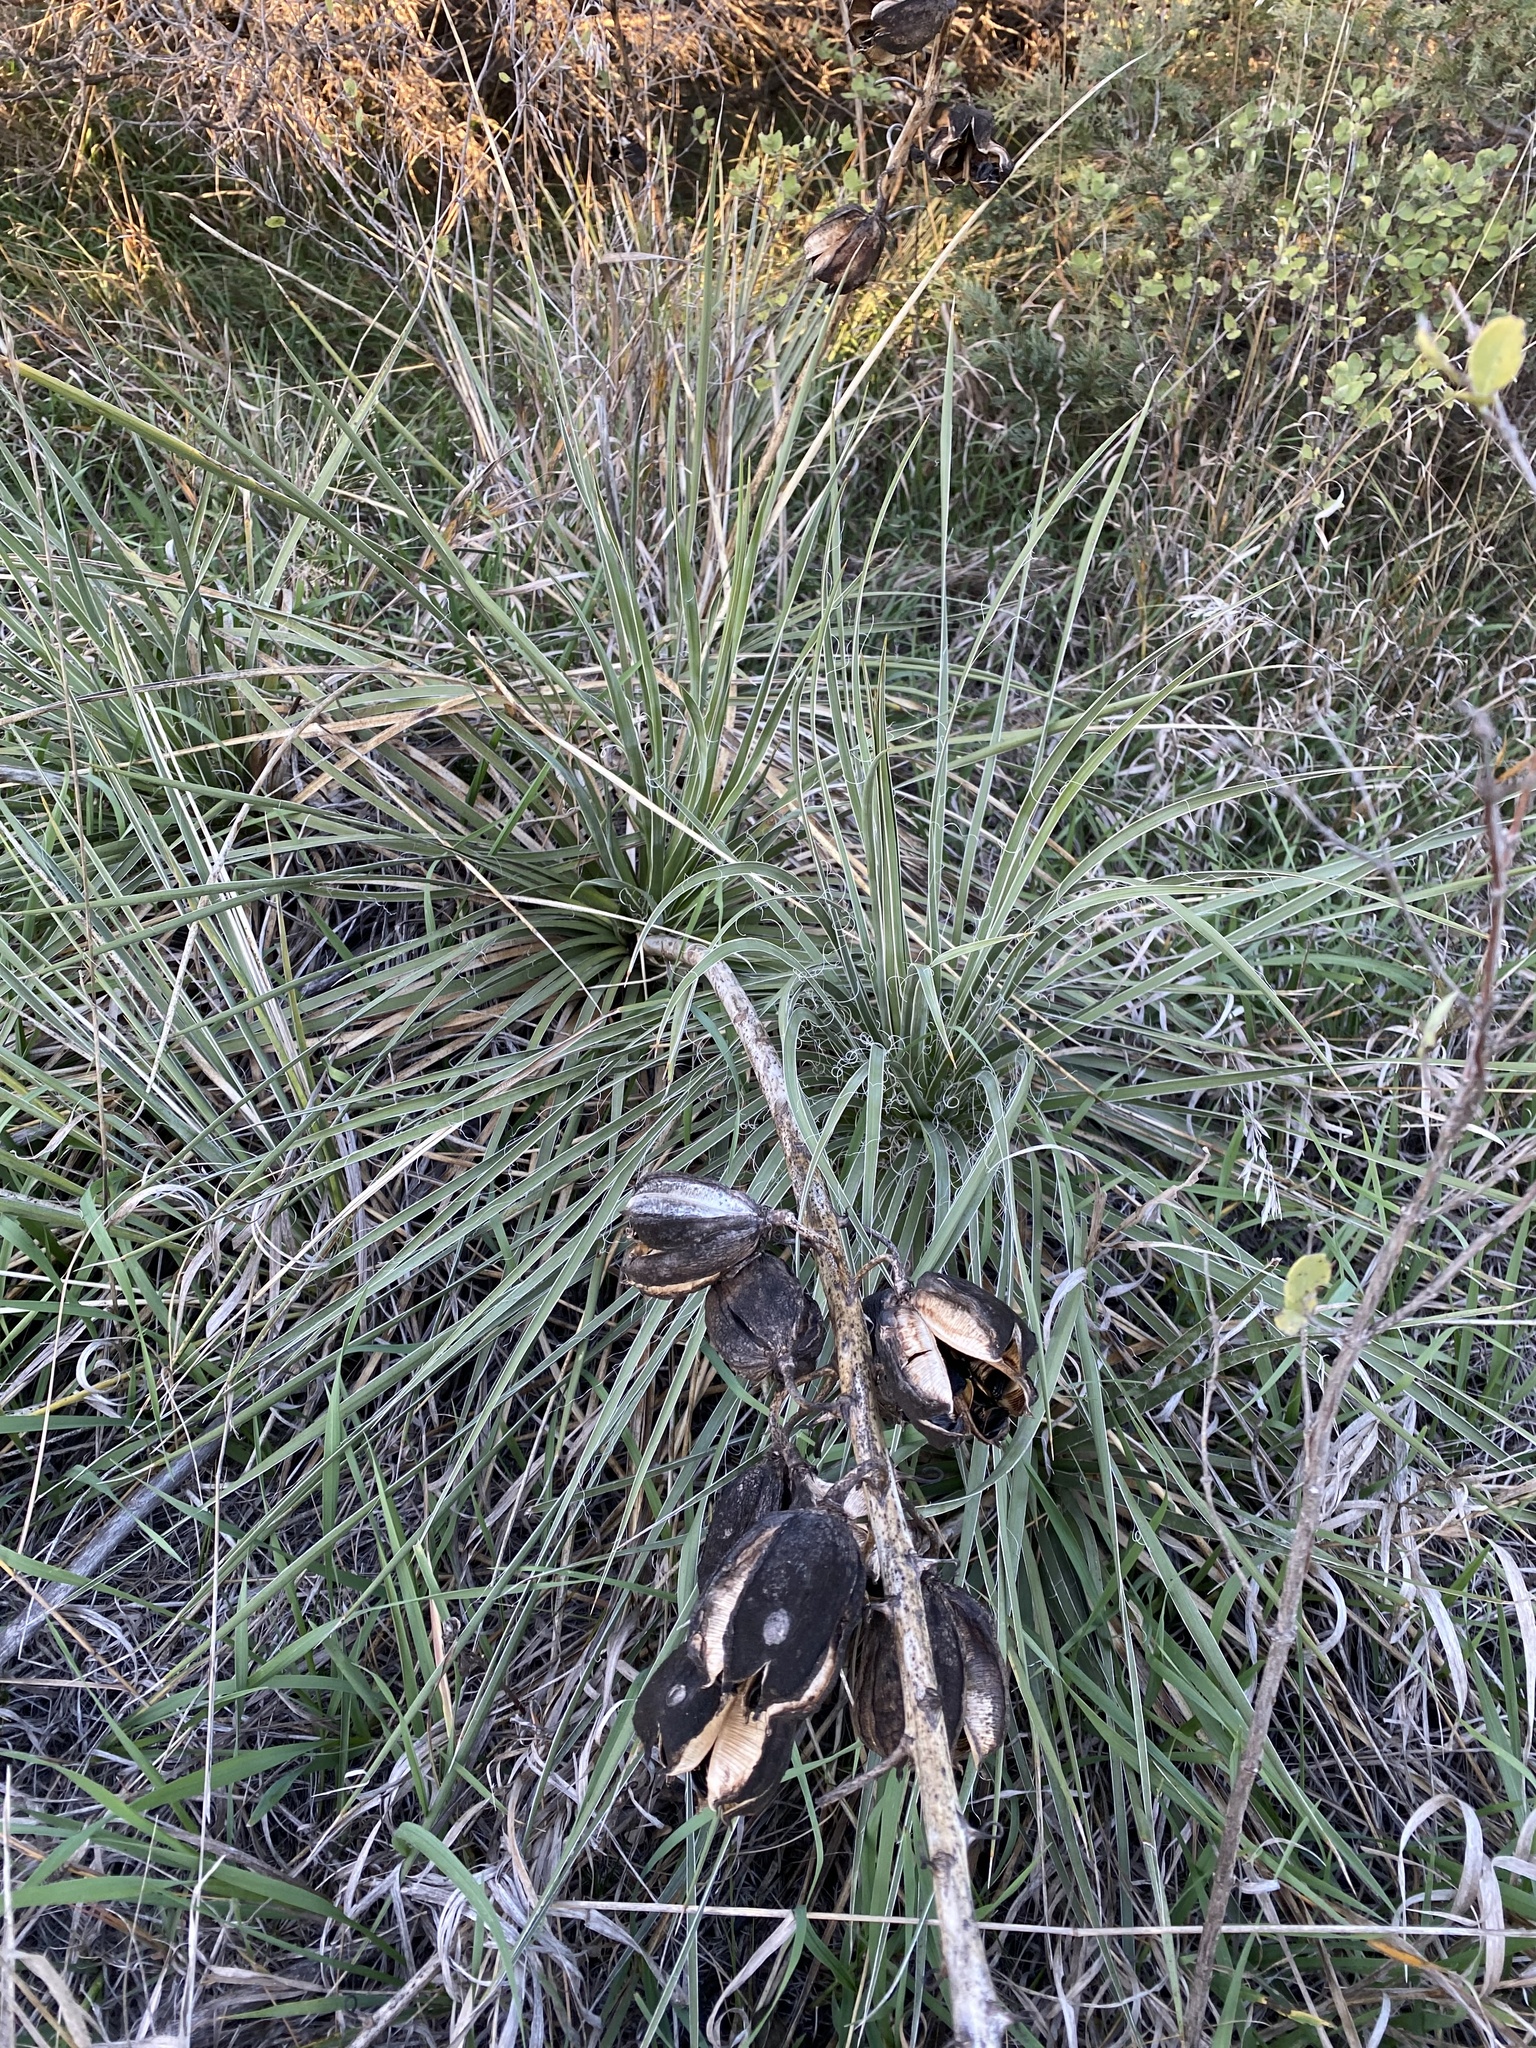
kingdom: Plantae
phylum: Tracheophyta
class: Liliopsida
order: Asparagales
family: Asparagaceae
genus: Yucca
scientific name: Yucca glauca
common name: Great plains yucca
